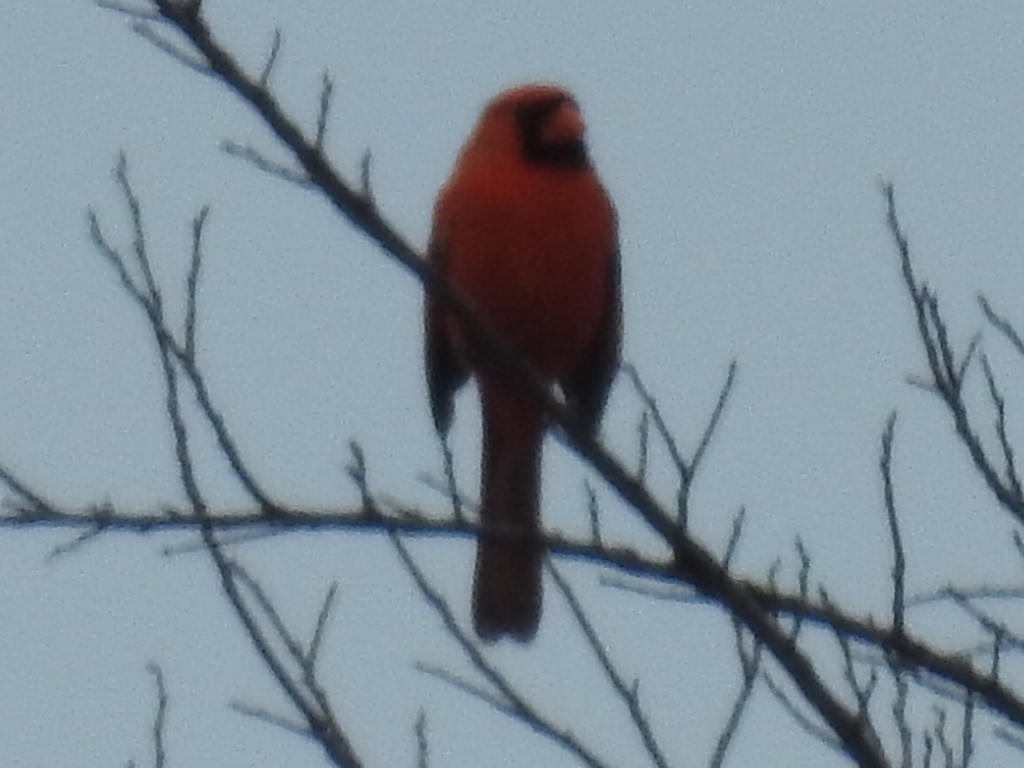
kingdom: Animalia
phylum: Chordata
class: Aves
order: Passeriformes
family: Cardinalidae
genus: Cardinalis
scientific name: Cardinalis cardinalis
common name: Northern cardinal
